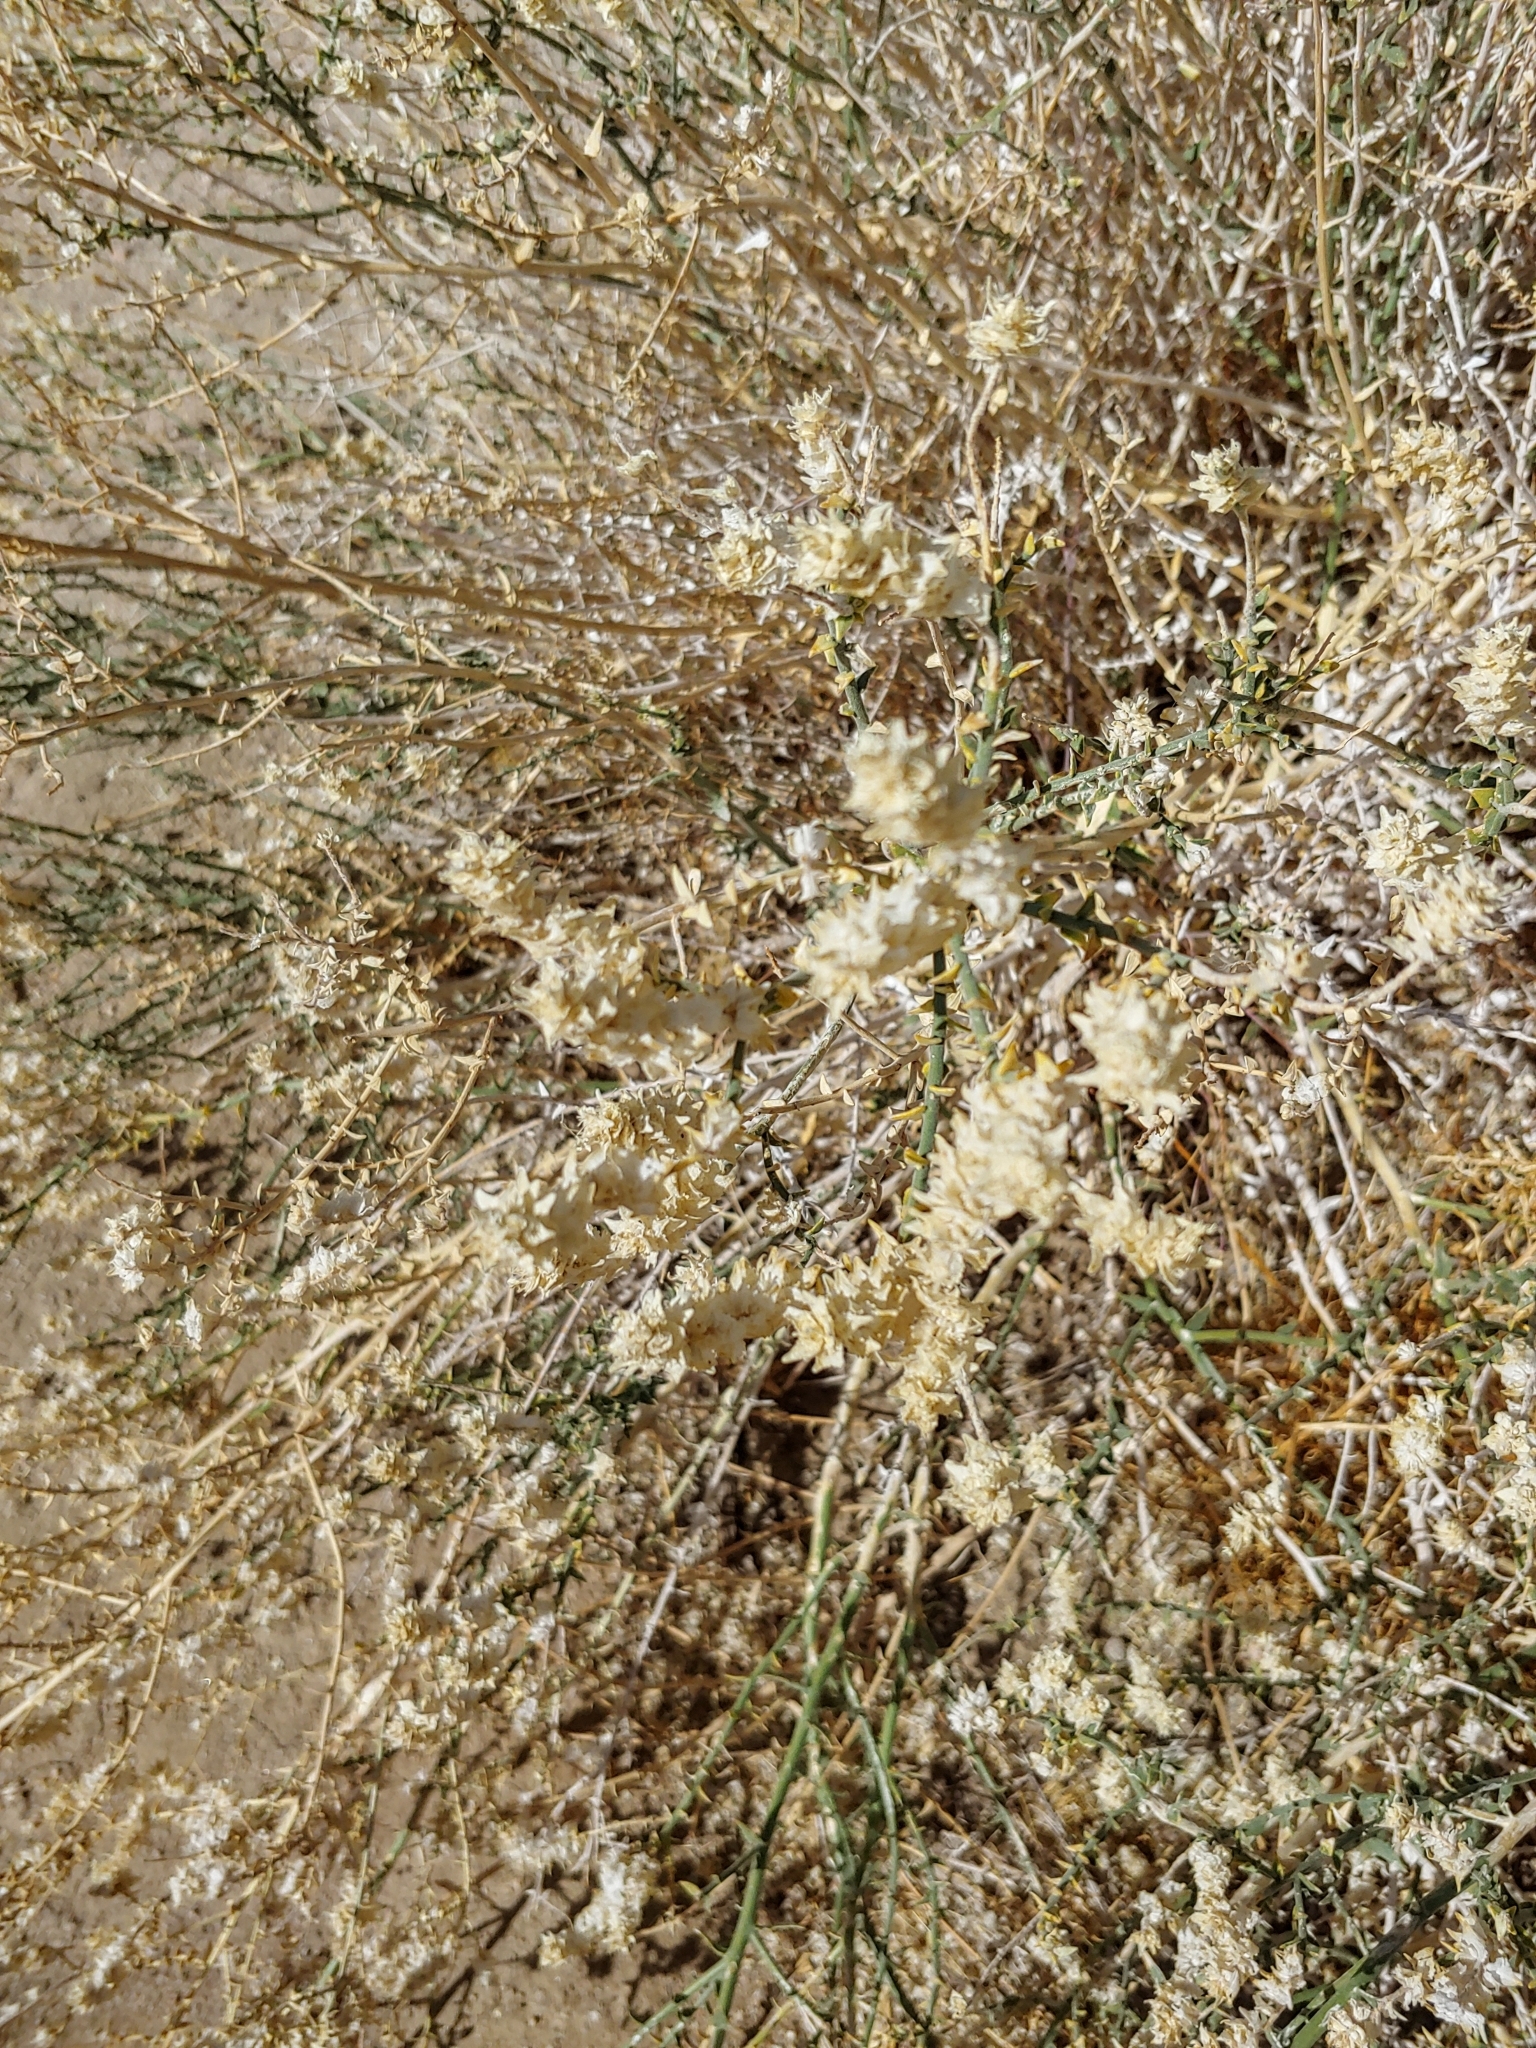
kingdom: Plantae
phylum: Tracheophyta
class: Magnoliopsida
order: Cornales
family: Loasaceae
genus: Petalonyx
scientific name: Petalonyx thurberi
